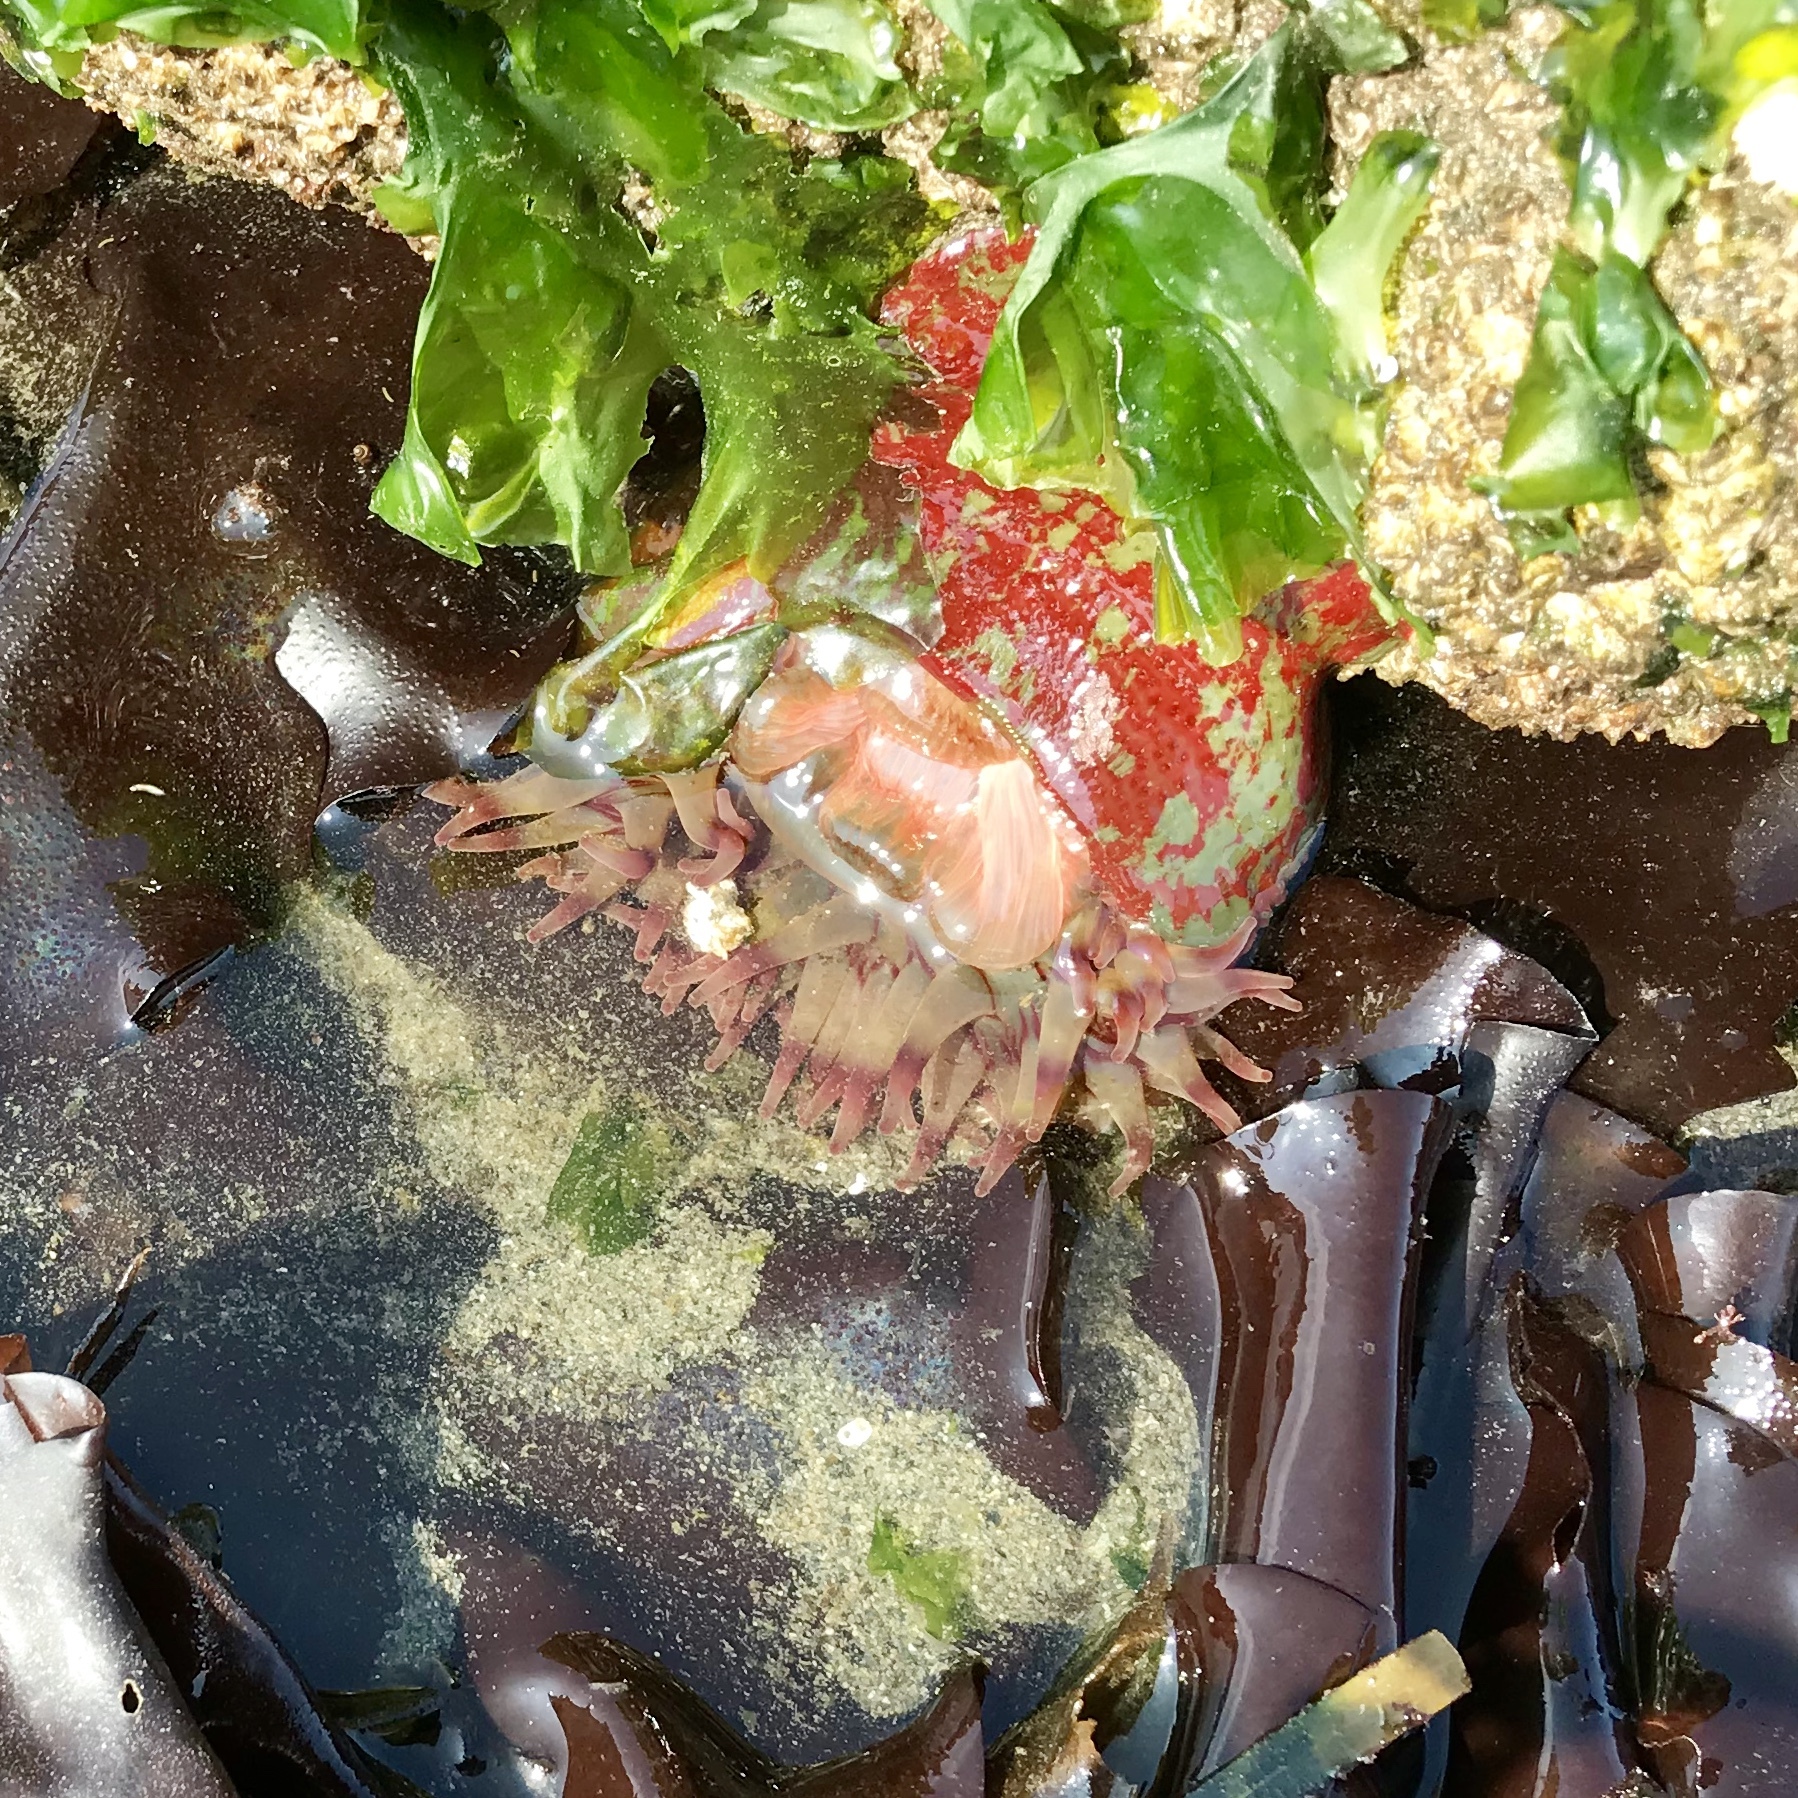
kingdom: Animalia
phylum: Cnidaria
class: Anthozoa
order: Actiniaria
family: Actiniidae
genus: Urticina
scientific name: Urticina grebelnyi
